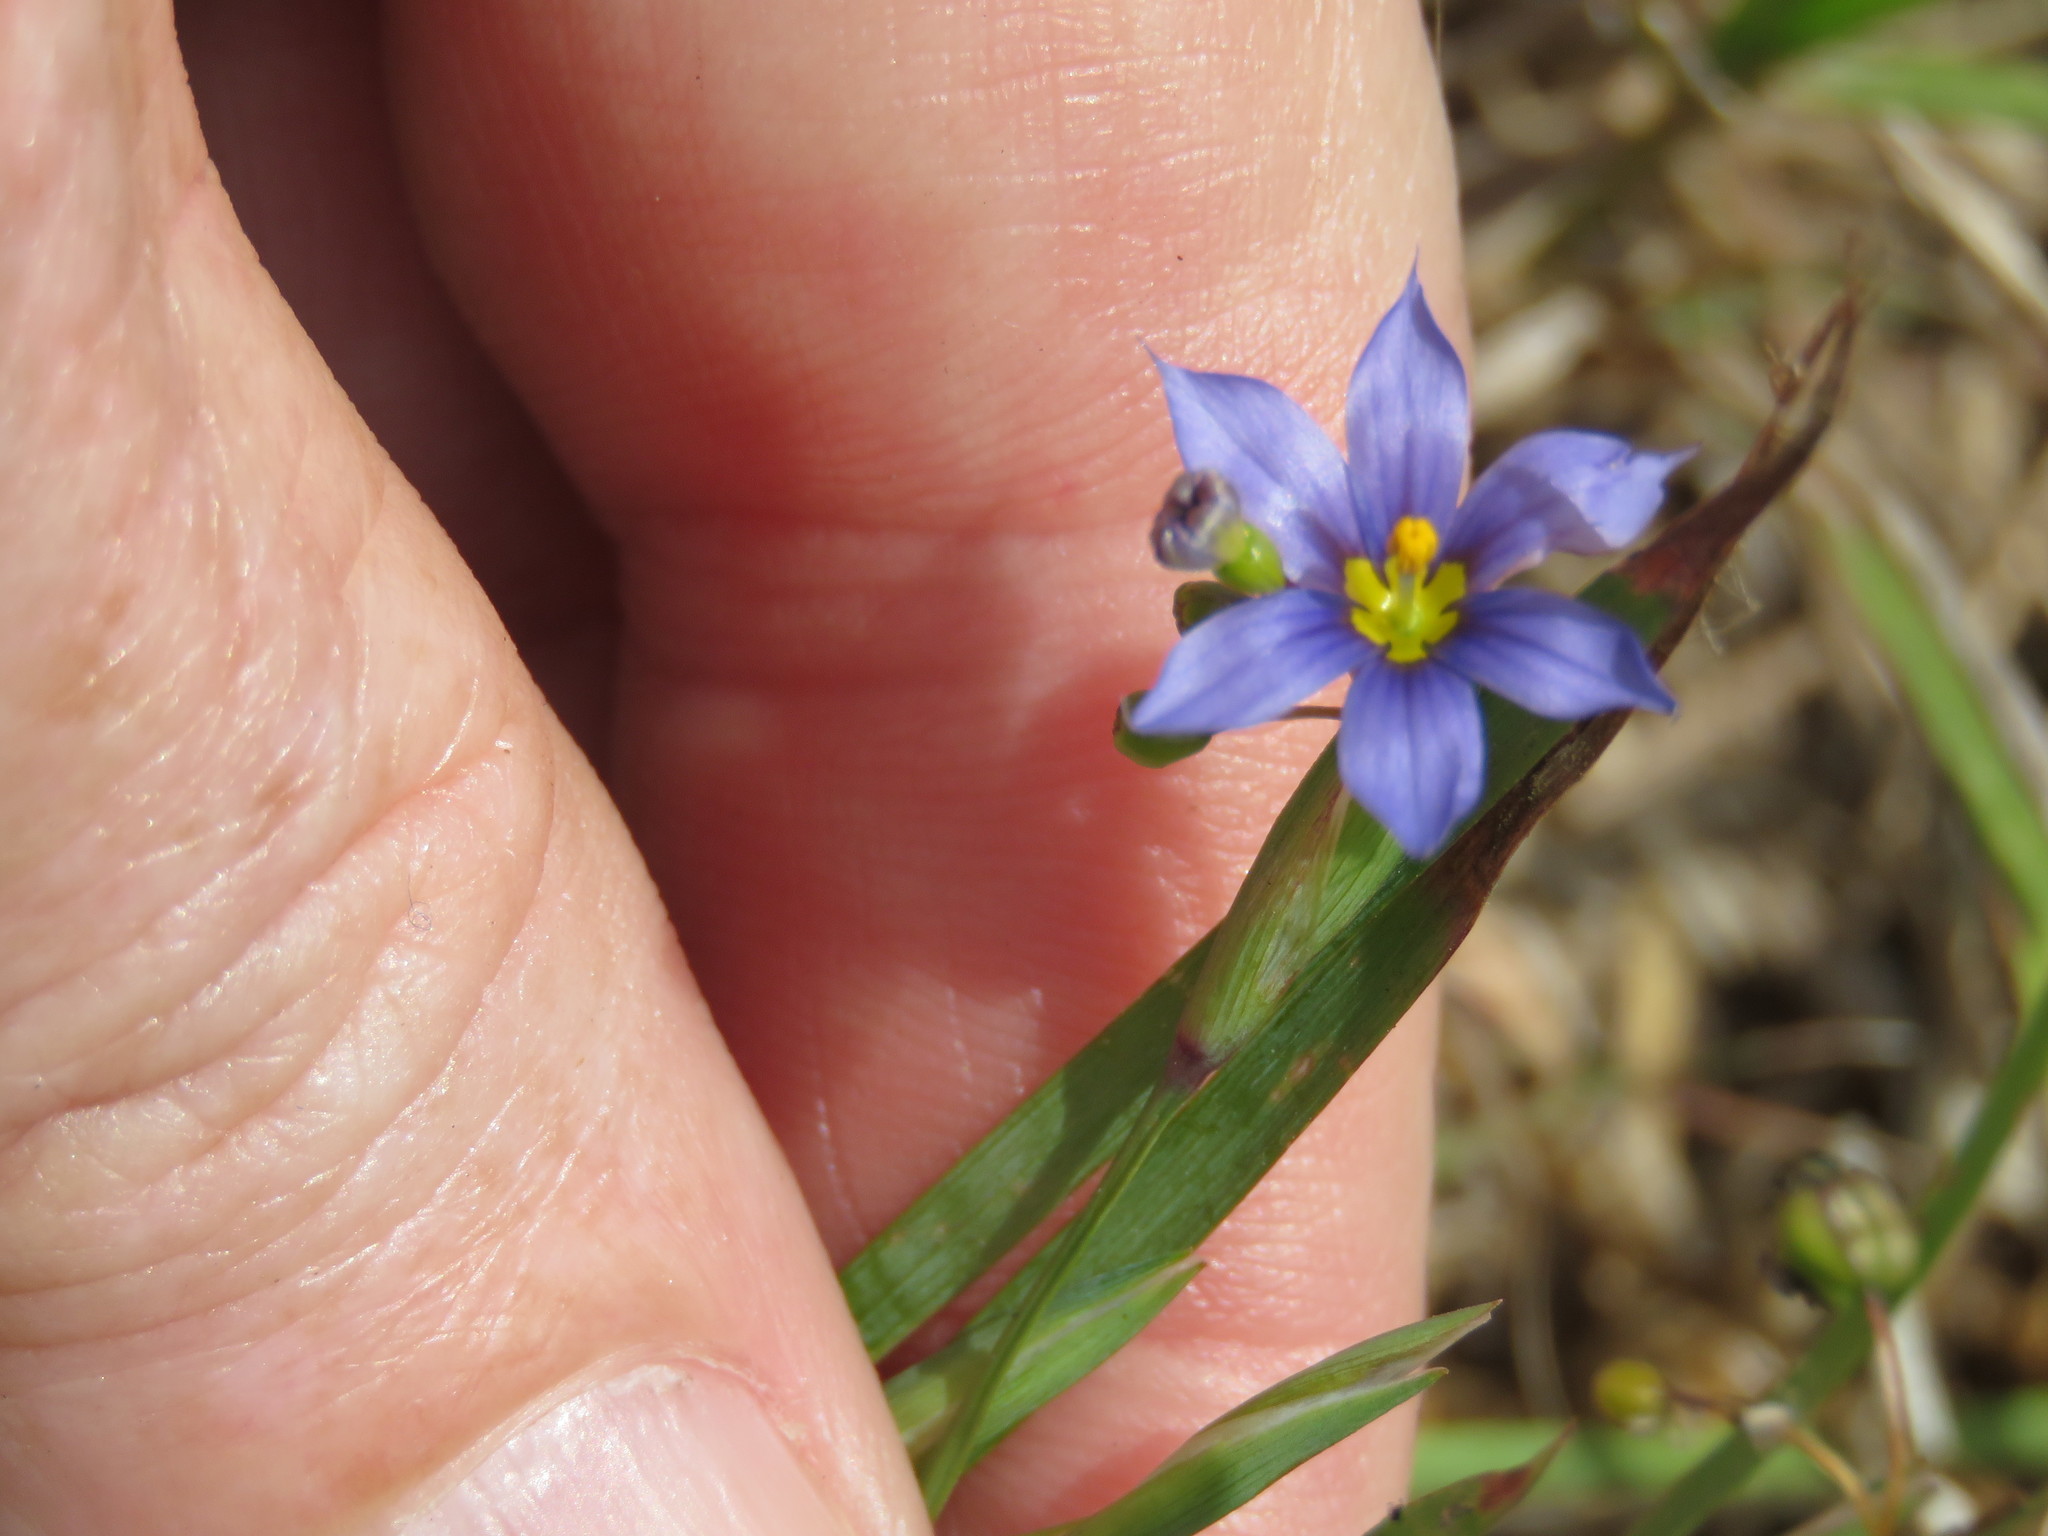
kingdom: Plantae
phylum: Tracheophyta
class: Liliopsida
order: Asparagales
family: Iridaceae
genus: Sisyrinchium
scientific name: Sisyrinchium biforme
